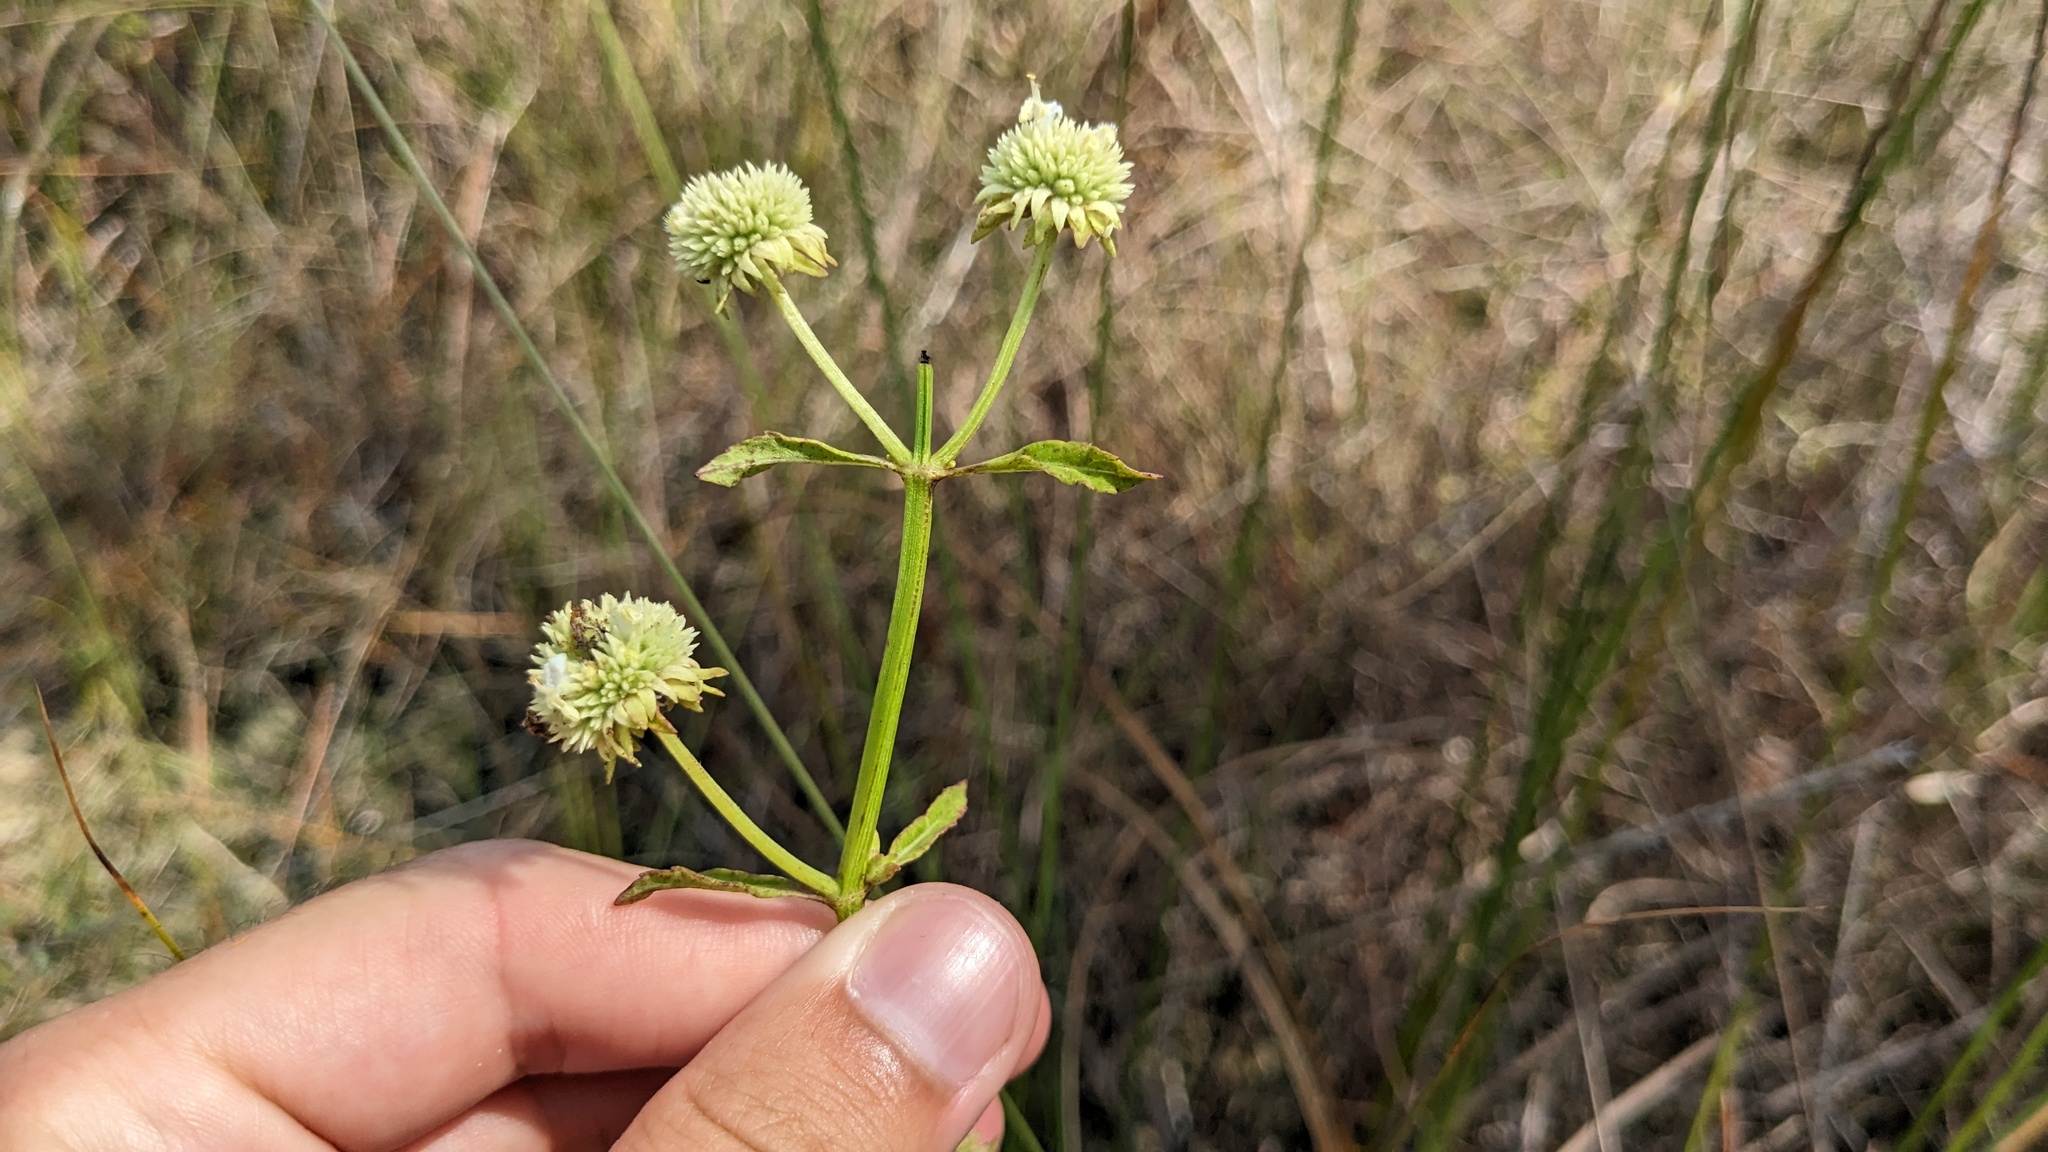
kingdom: Plantae
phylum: Tracheophyta
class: Magnoliopsida
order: Lamiales
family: Lamiaceae
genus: Hyptis
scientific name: Hyptis alata
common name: Cluster bush-mint
